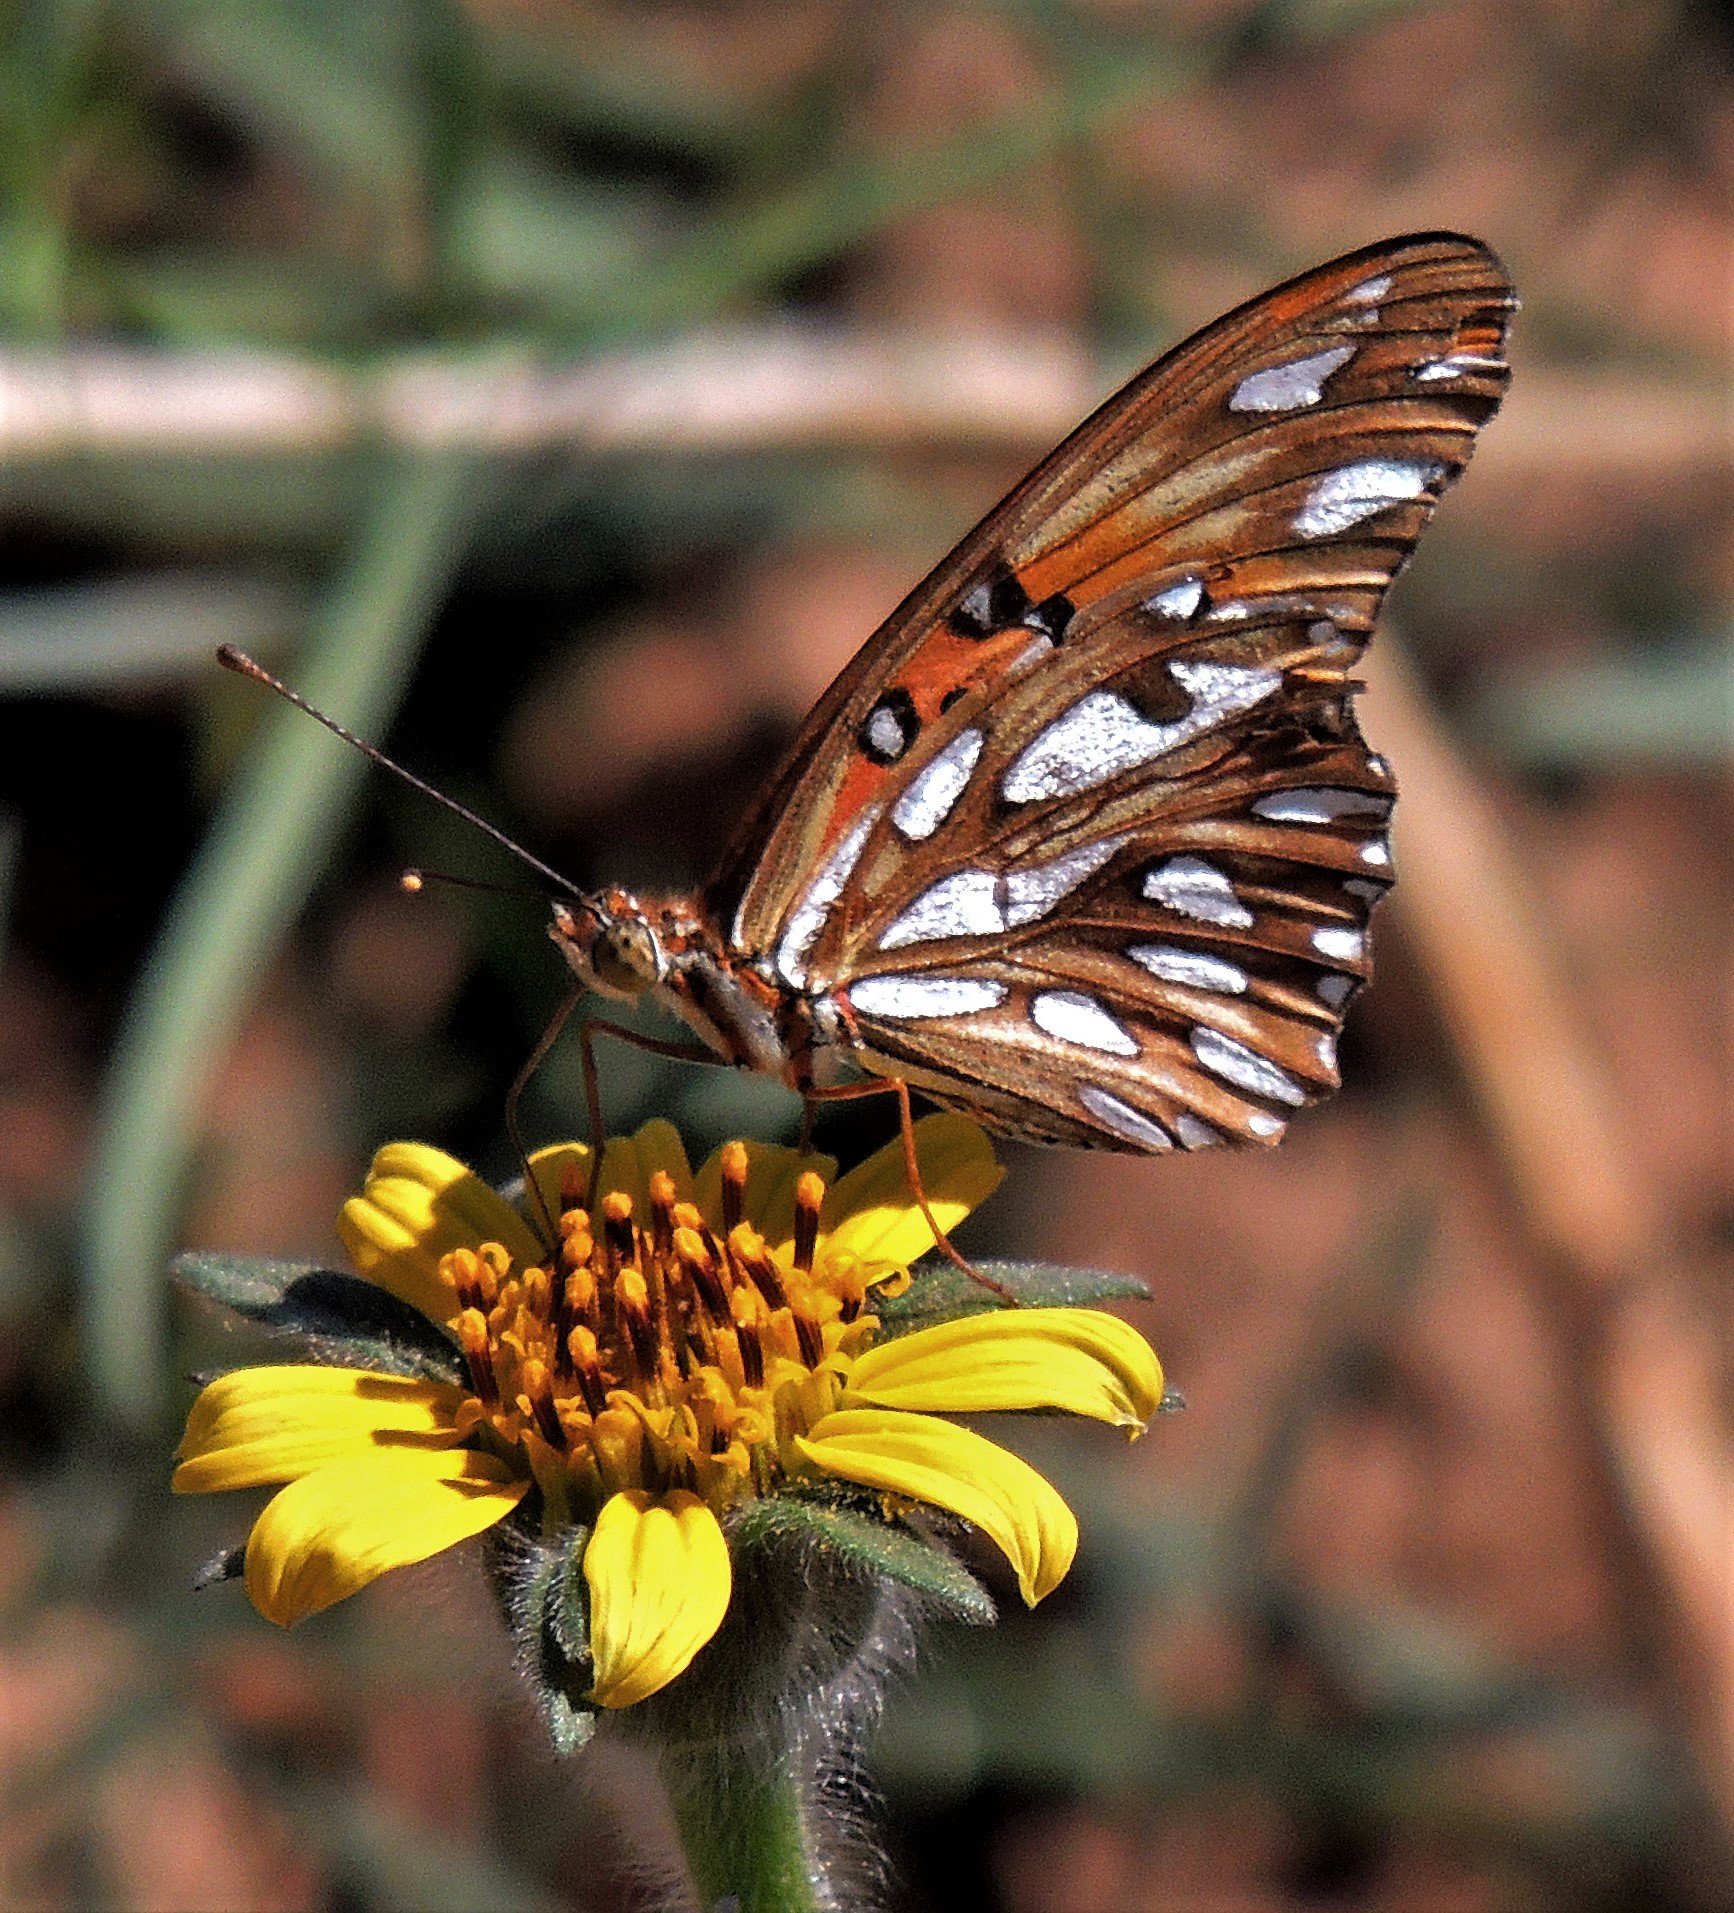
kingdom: Animalia
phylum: Arthropoda
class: Insecta
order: Lepidoptera
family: Nymphalidae
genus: Dione
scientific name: Dione vanillae
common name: Gulf fritillary
